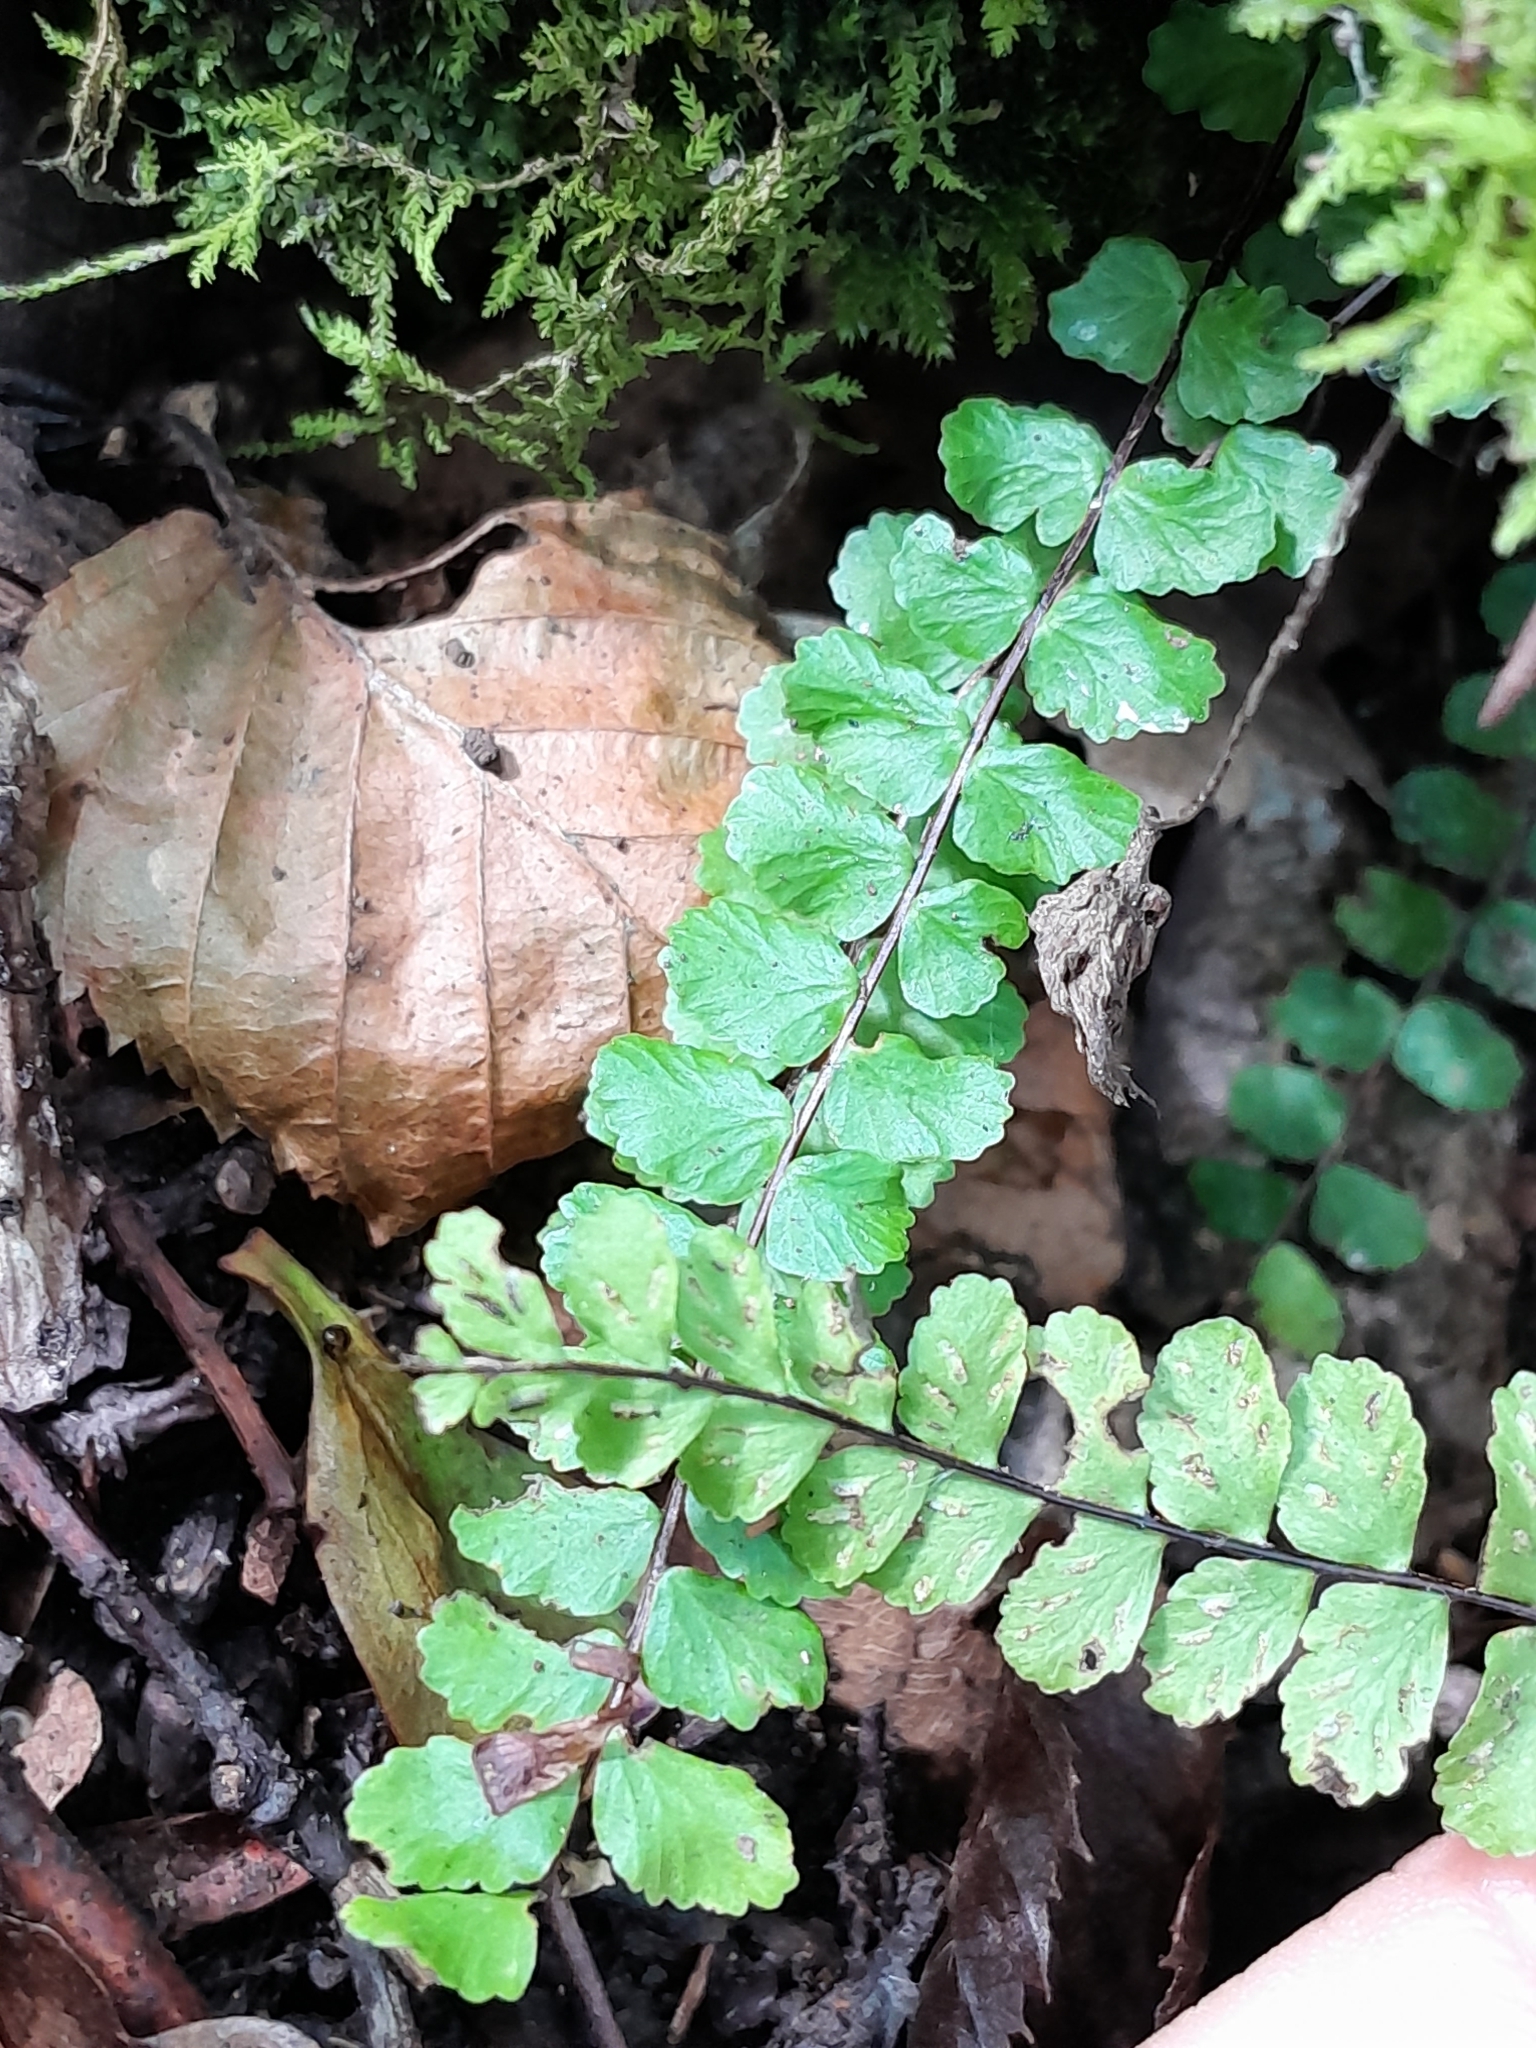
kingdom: Plantae
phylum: Tracheophyta
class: Polypodiopsida
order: Polypodiales
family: Aspleniaceae
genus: Asplenium
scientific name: Asplenium trichomanes
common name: Maidenhair spleenwort
